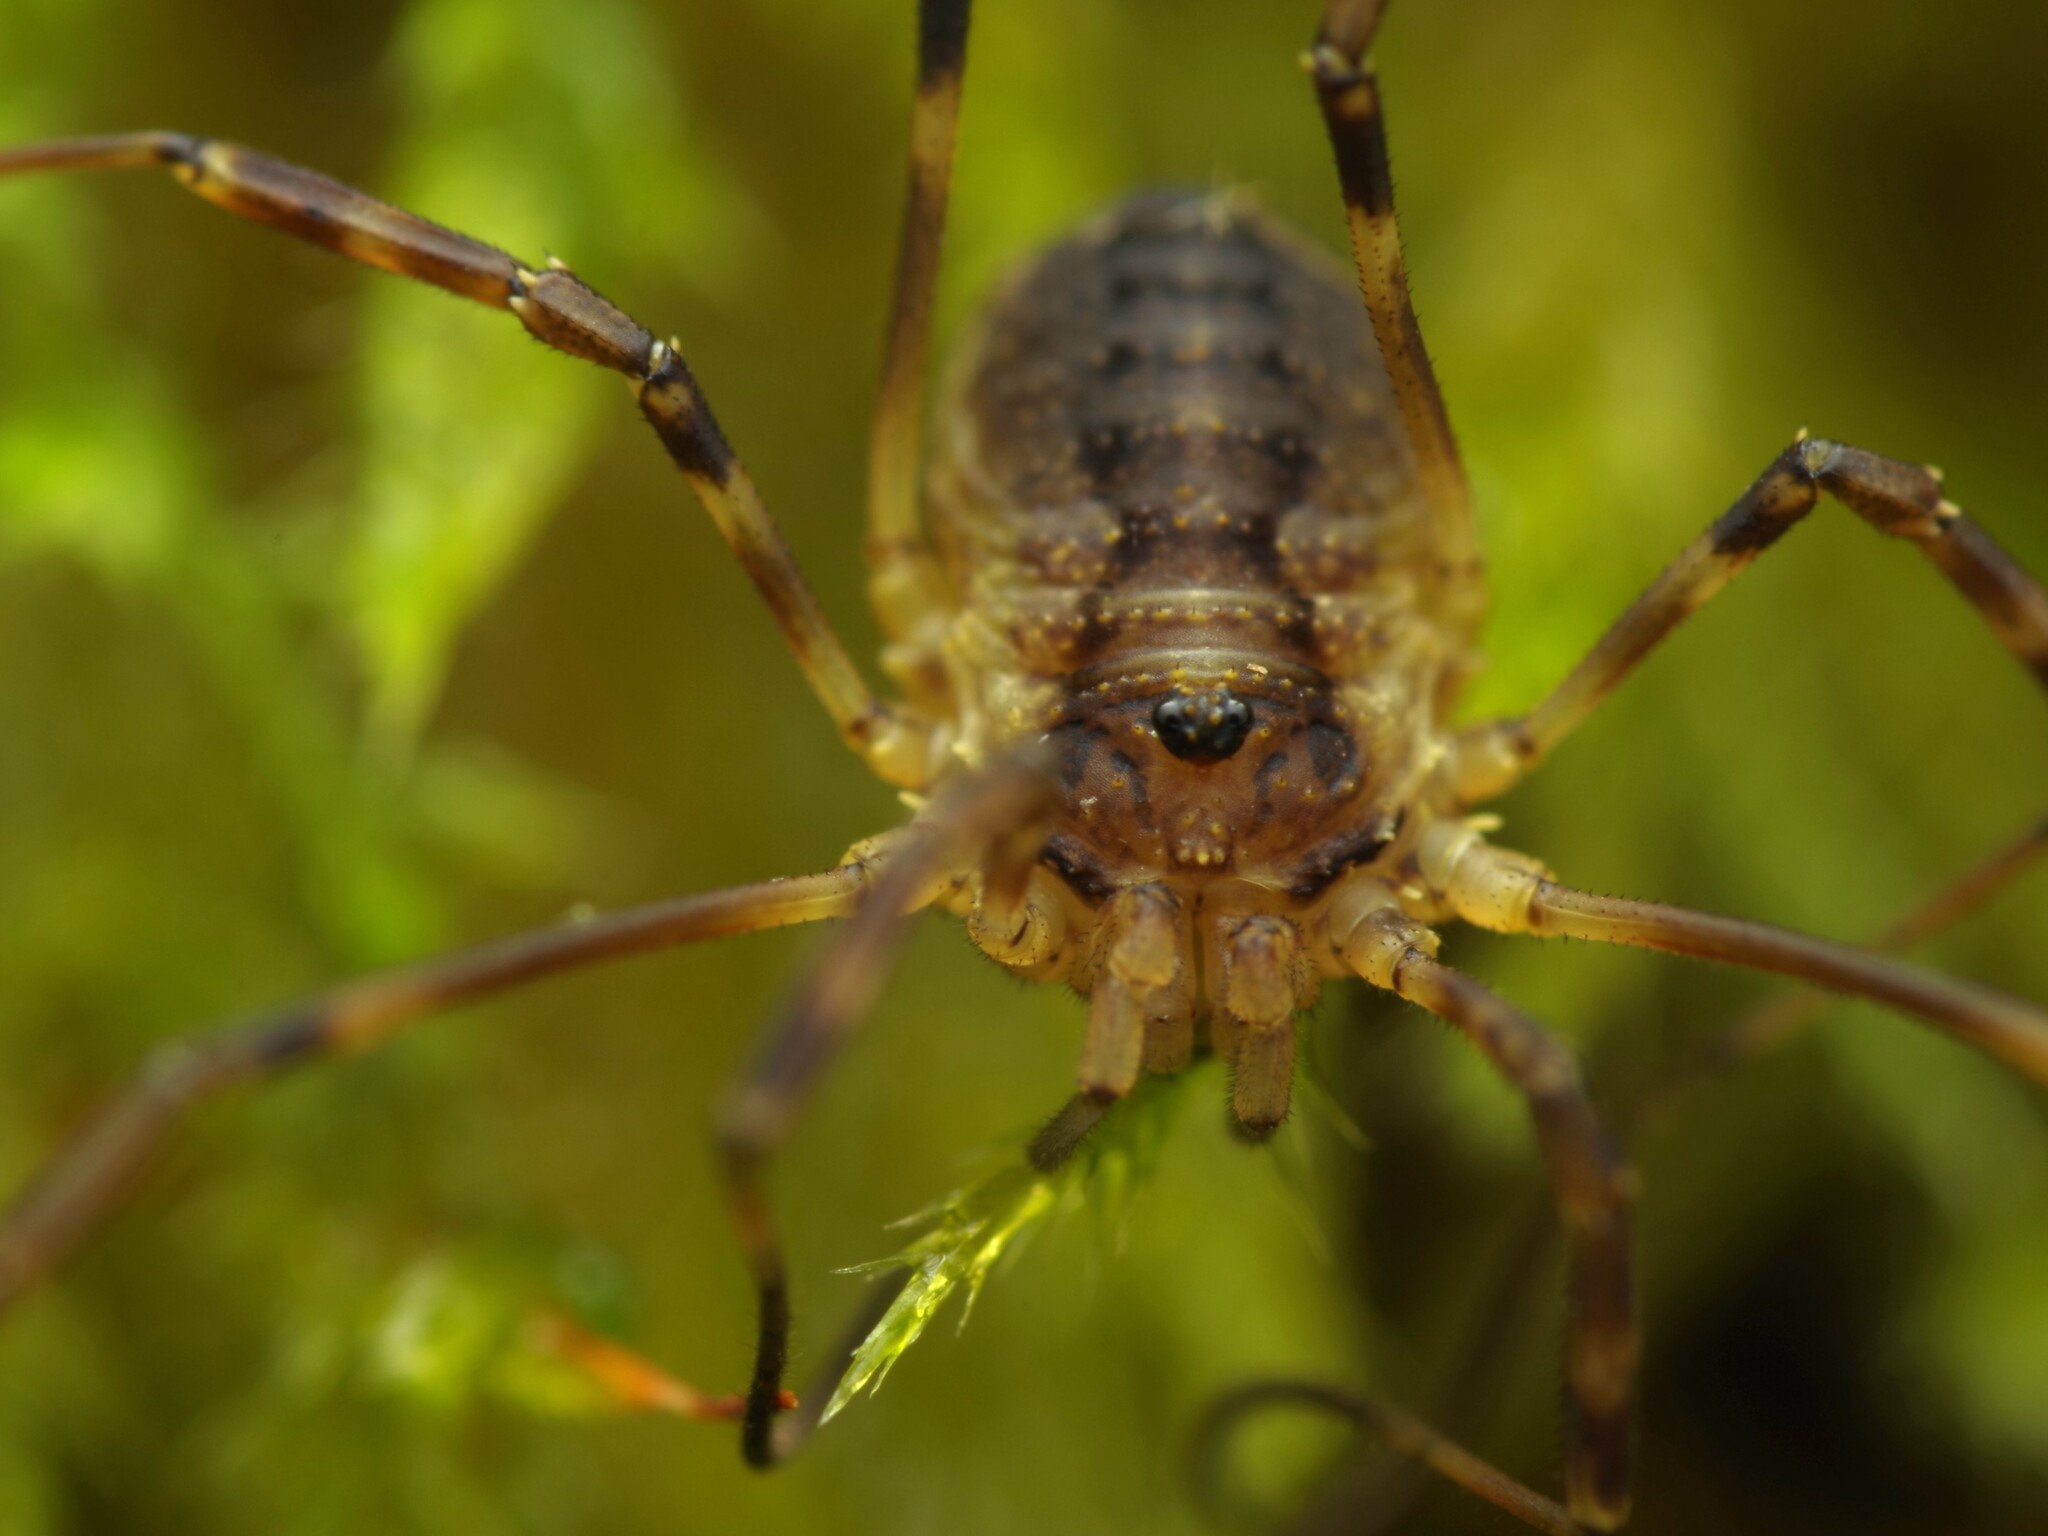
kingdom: Animalia
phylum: Arthropoda
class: Arachnida
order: Opiliones
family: Phalangiidae
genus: Oligolophus
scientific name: Oligolophus hansenii
